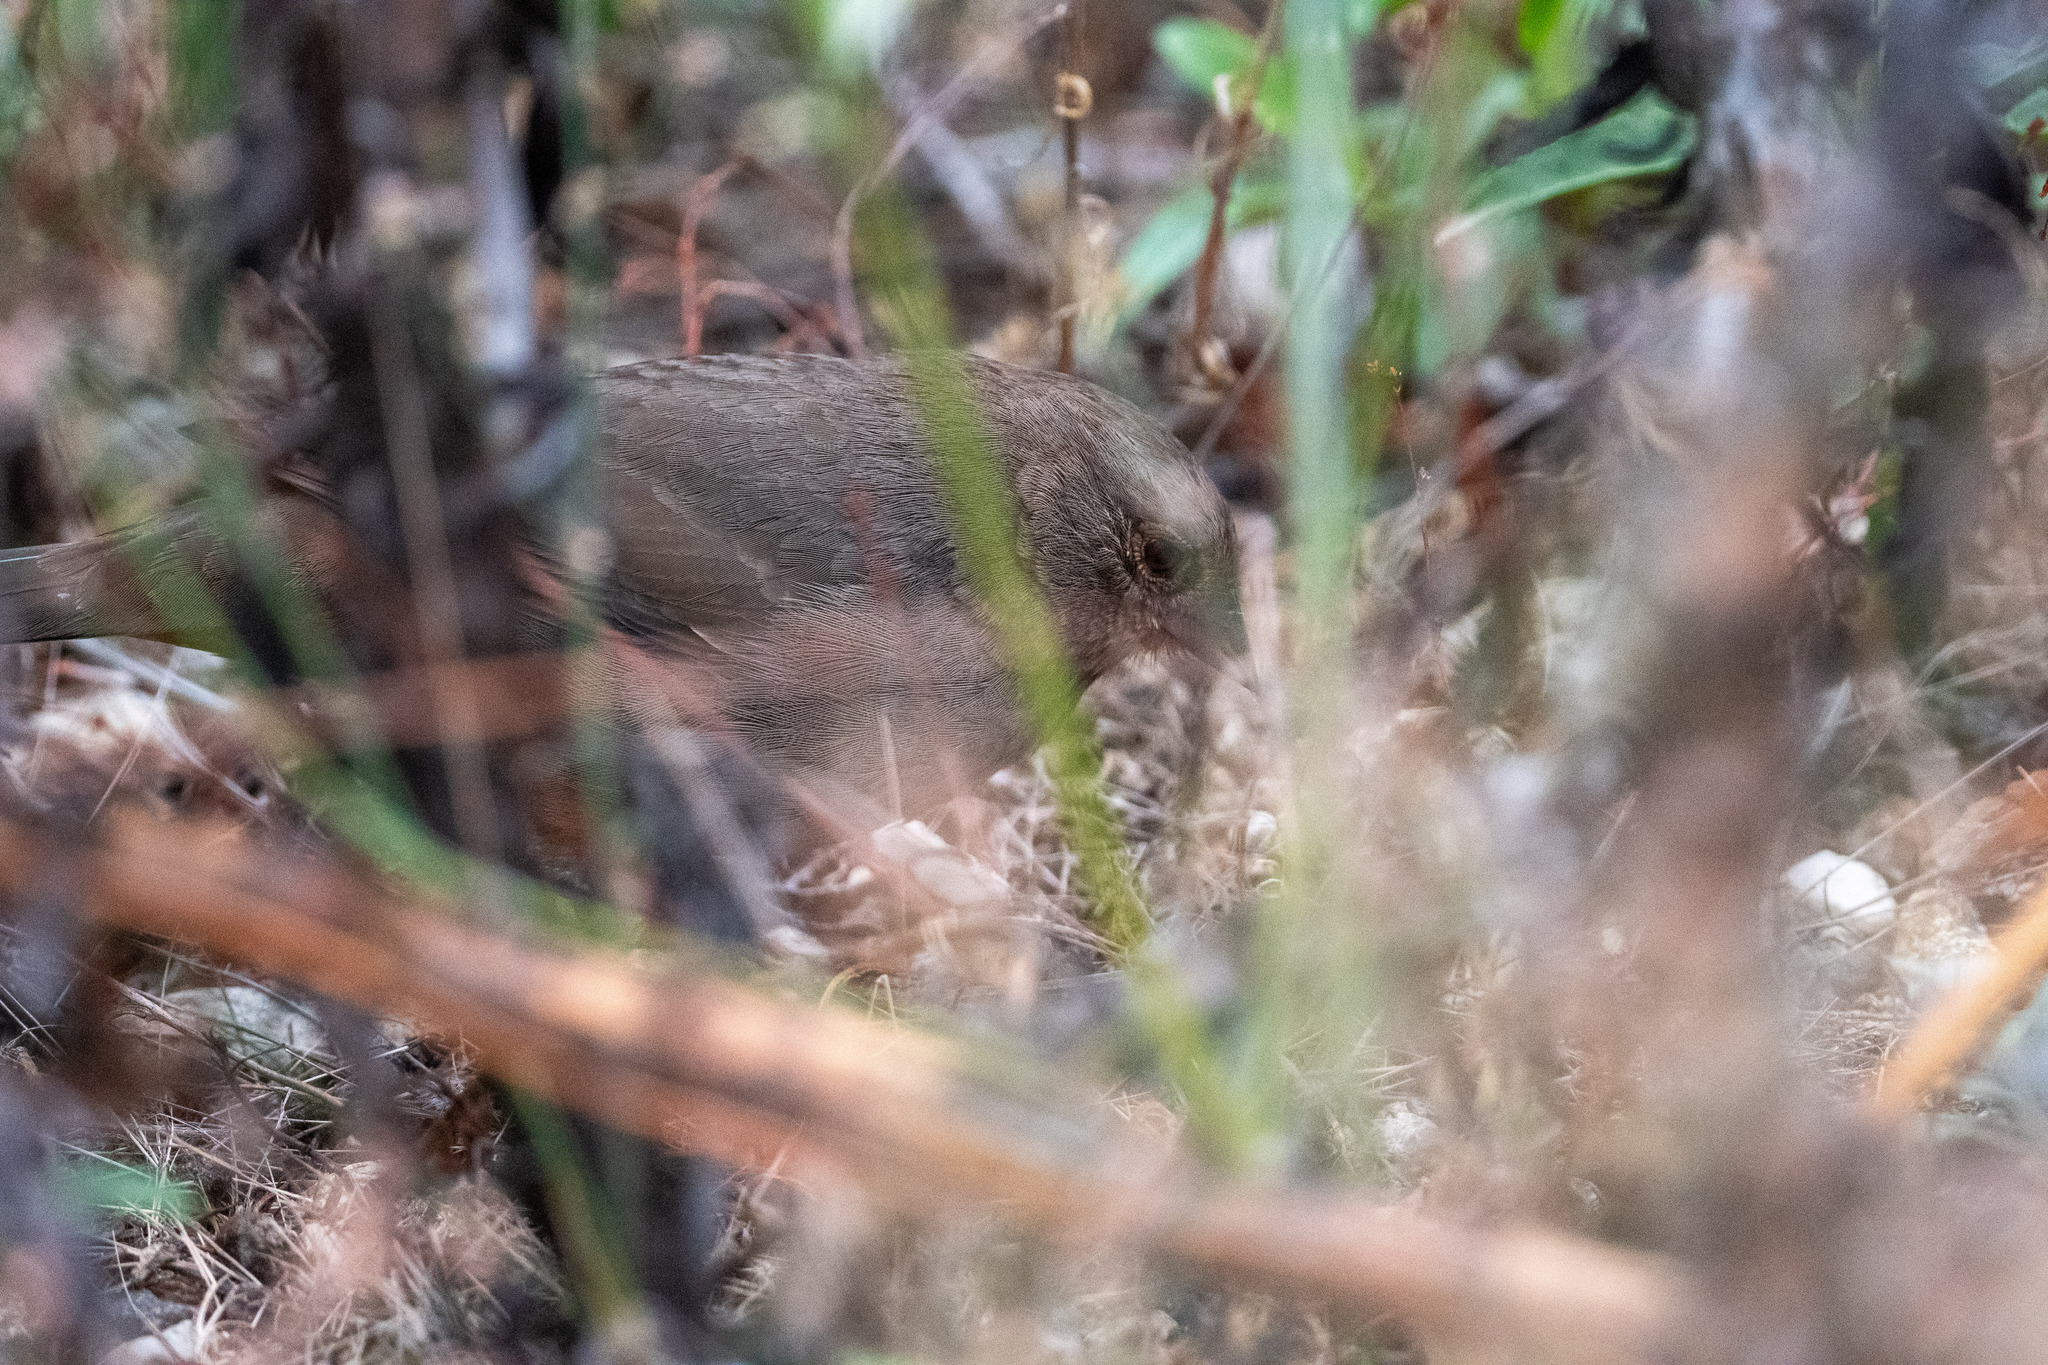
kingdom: Animalia
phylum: Chordata
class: Aves
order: Passeriformes
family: Passerellidae
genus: Melozone
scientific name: Melozone crissalis
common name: California towhee
